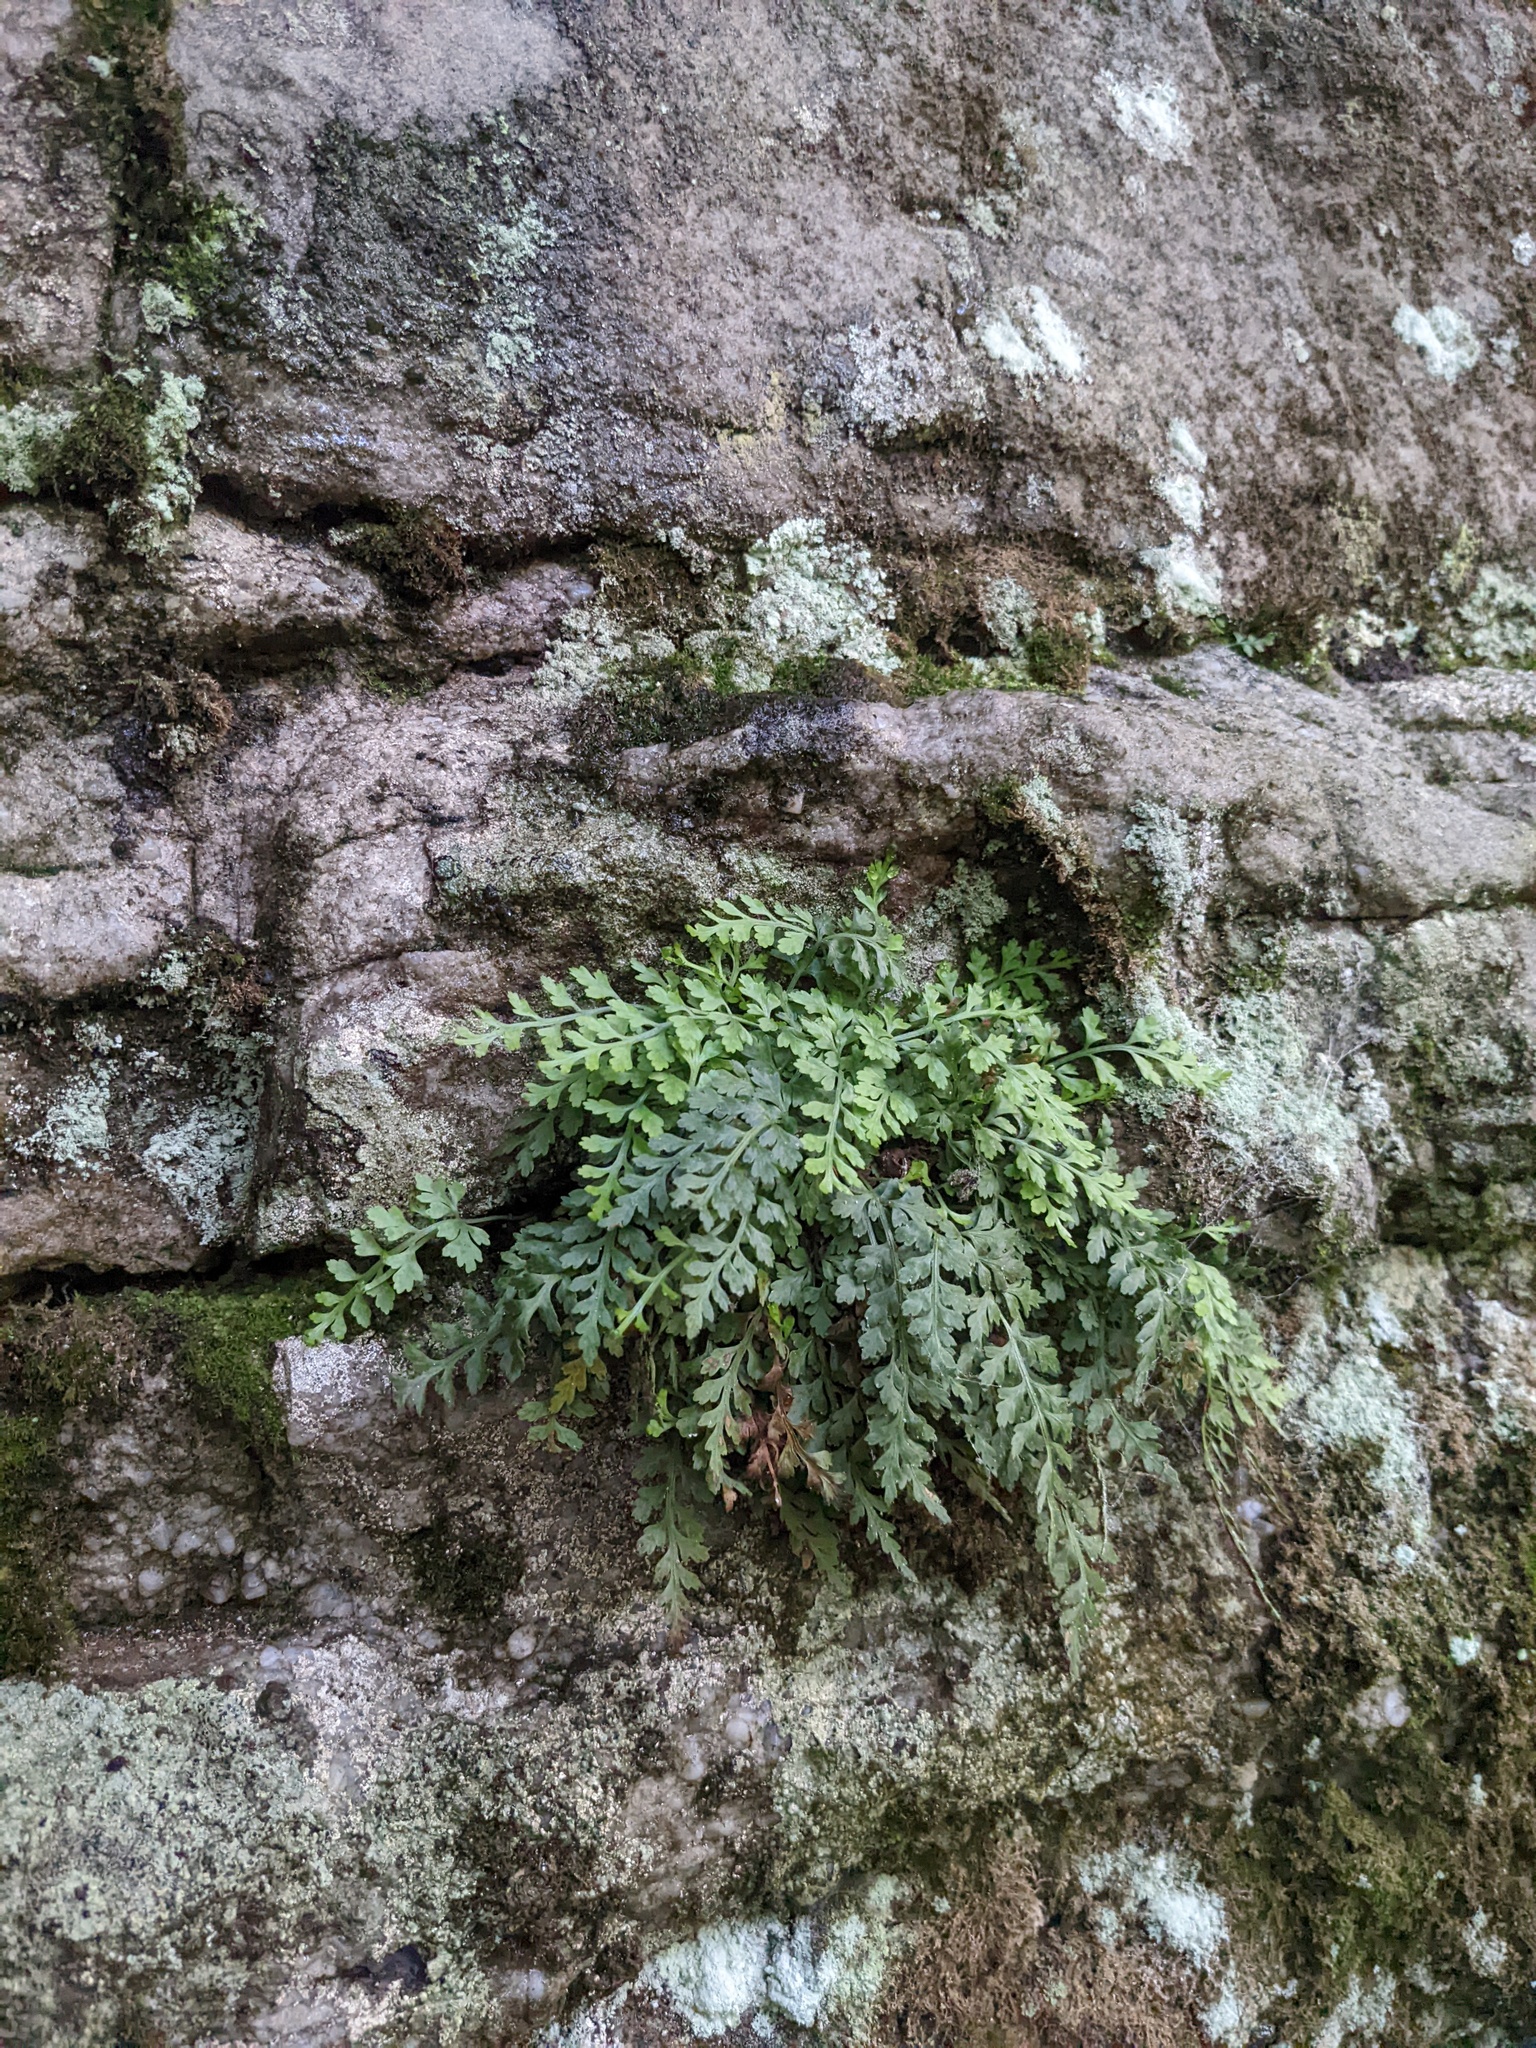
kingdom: Plantae
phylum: Tracheophyta
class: Polypodiopsida
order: Polypodiales
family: Aspleniaceae
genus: Asplenium
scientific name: Asplenium montanum
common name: Mountain spleenwort
